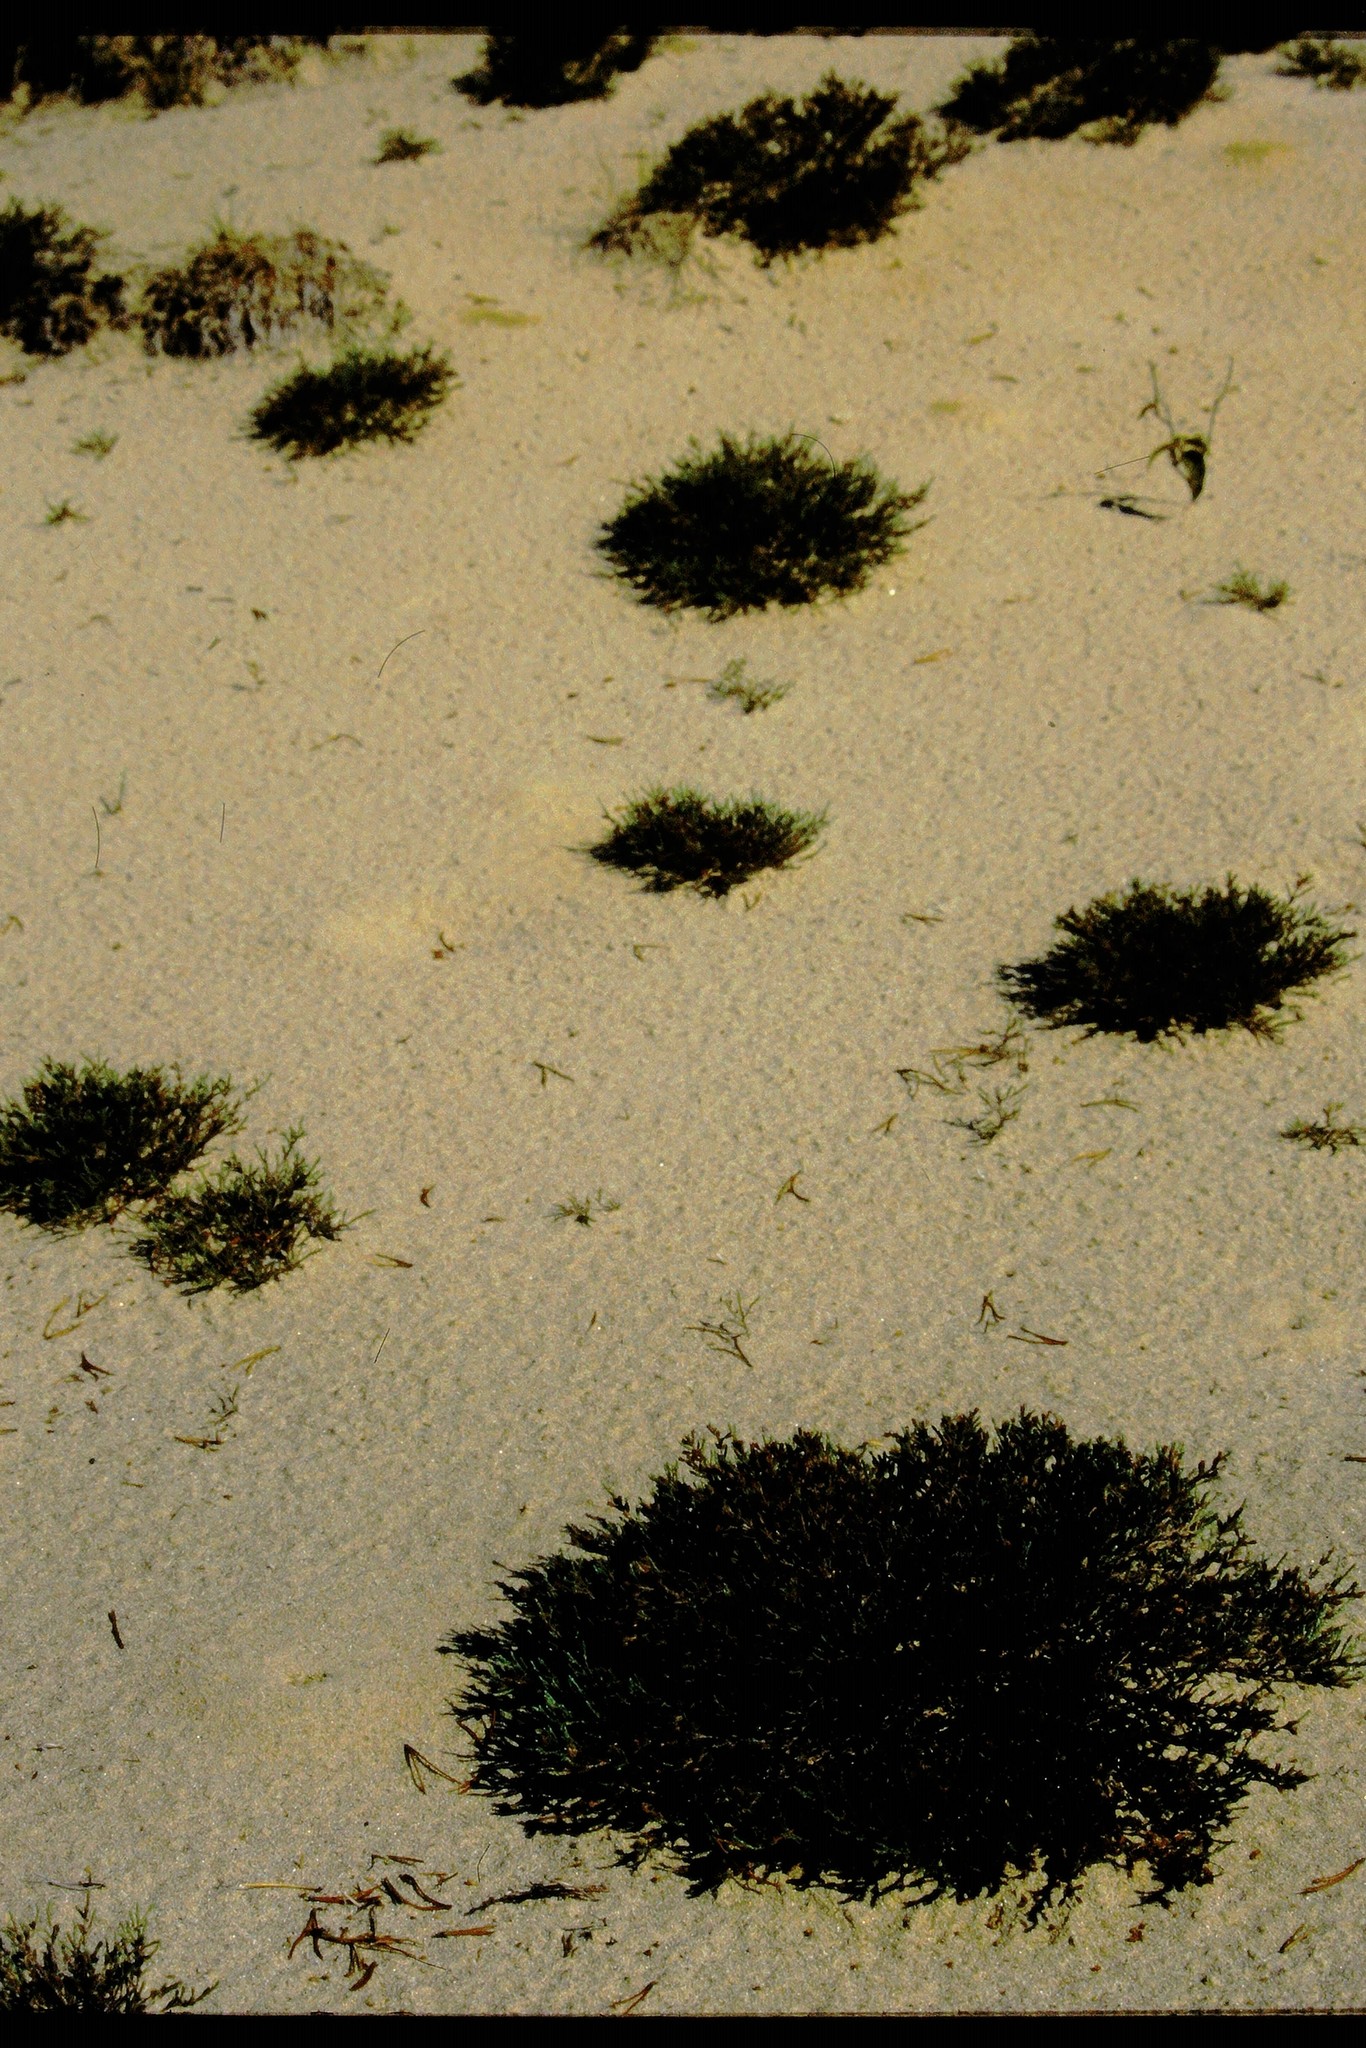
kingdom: Plantae
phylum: Tracheophyta
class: Magnoliopsida
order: Malvales
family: Cistaceae
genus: Hudsonia
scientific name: Hudsonia tomentosa
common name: Beach-heath
